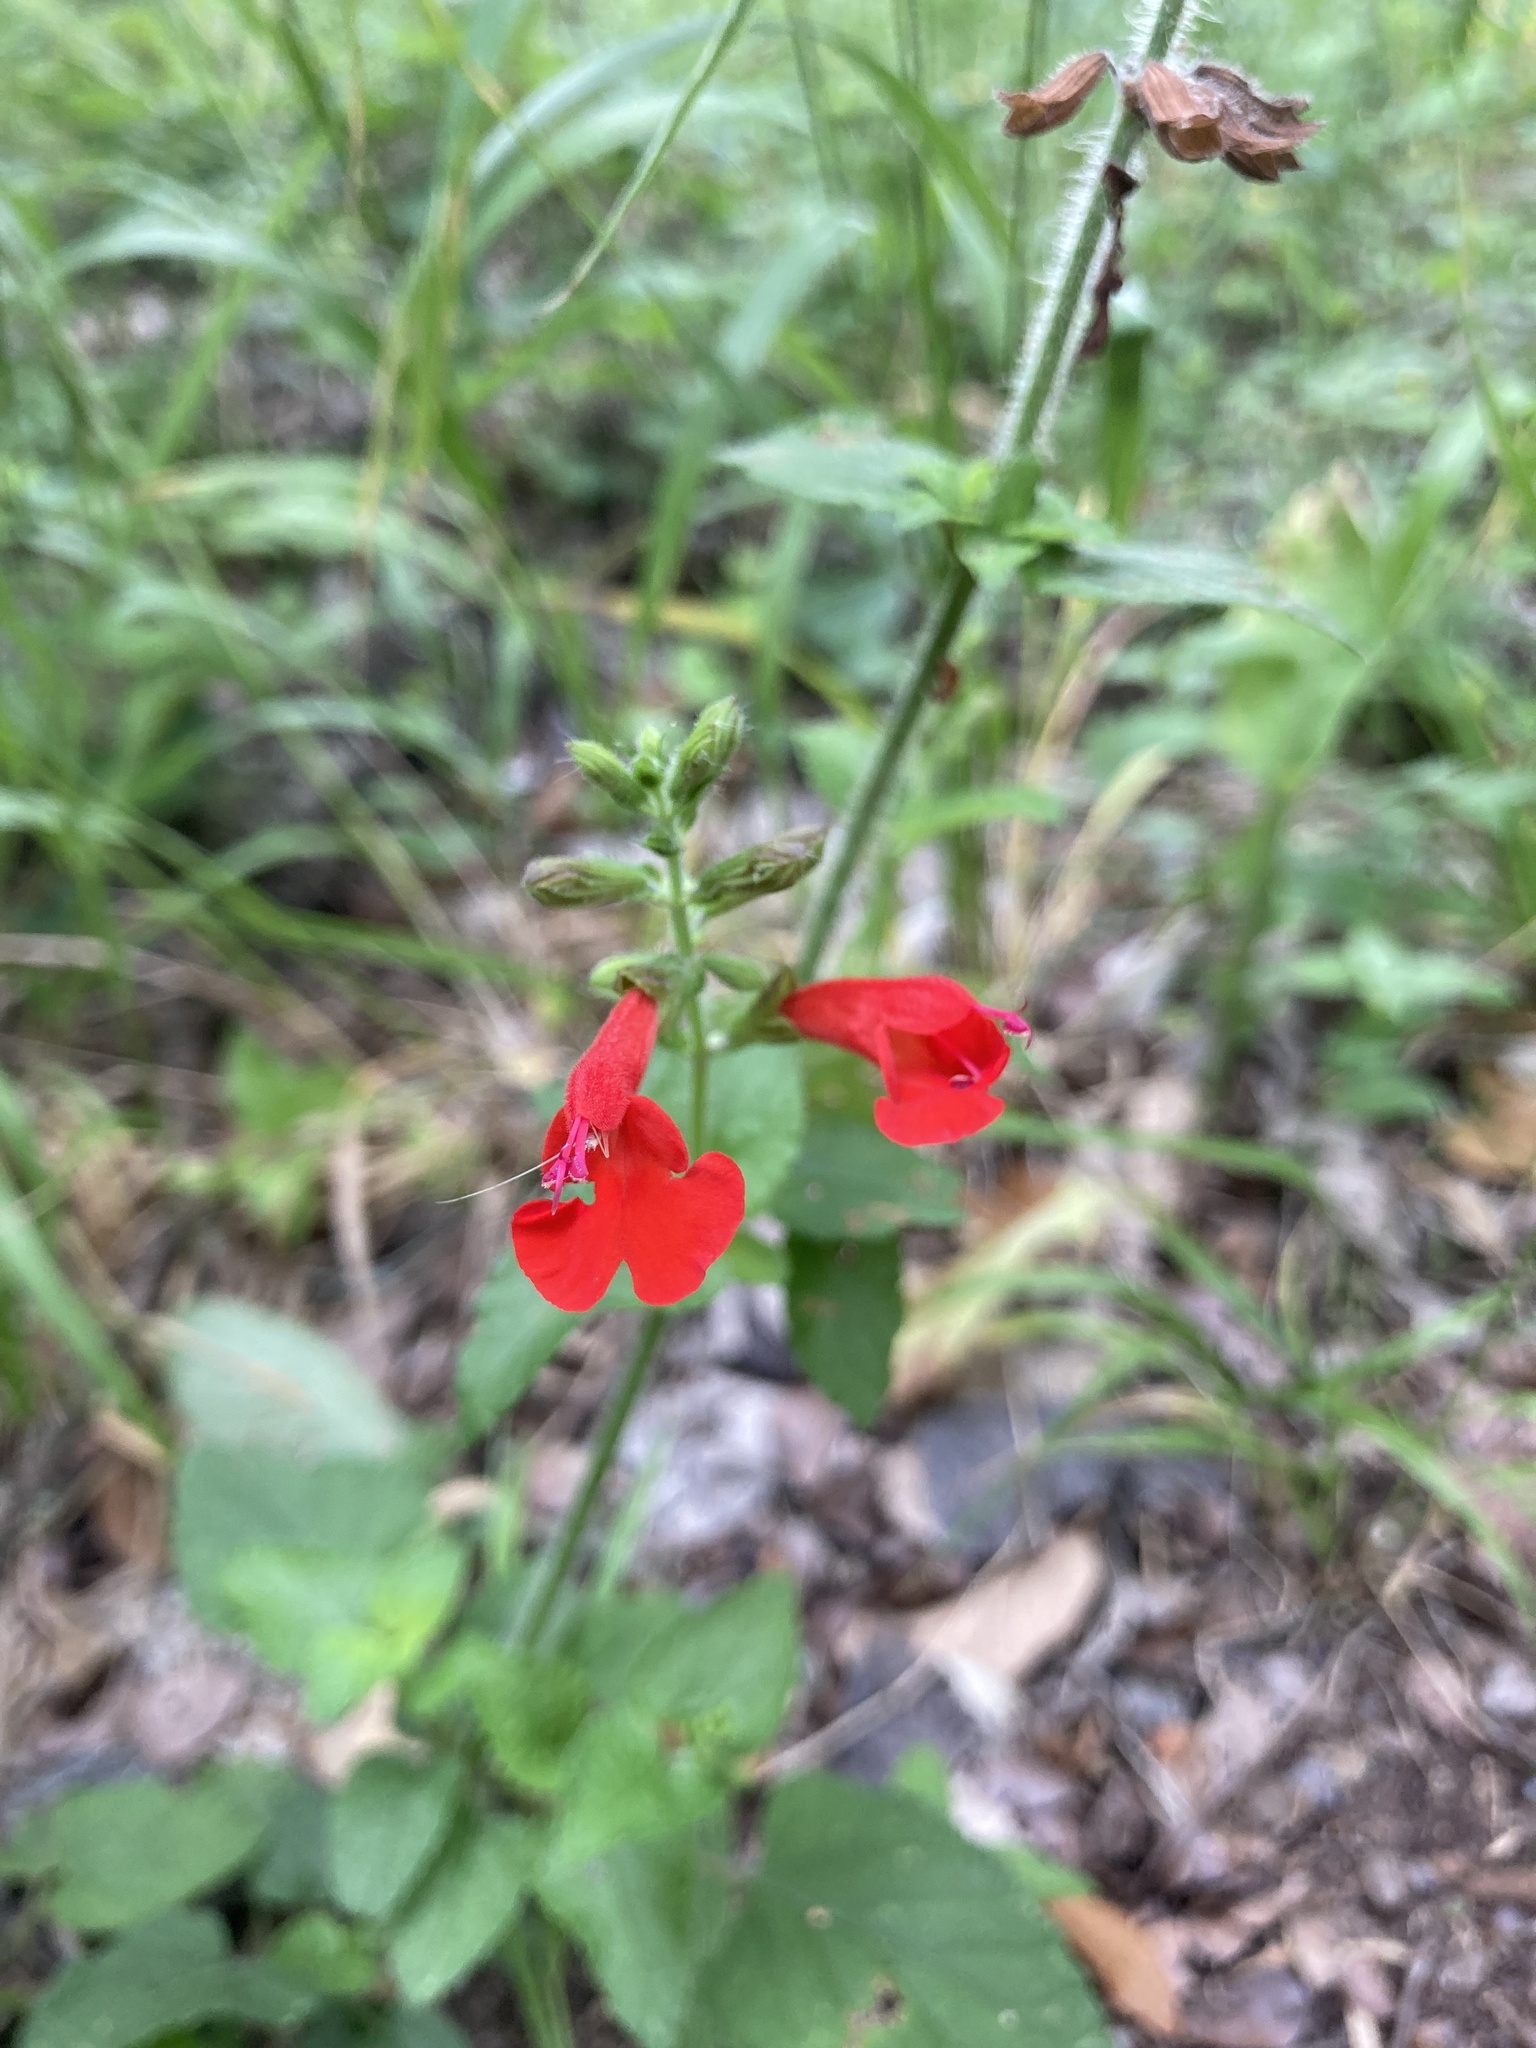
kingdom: Plantae
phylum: Tracheophyta
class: Magnoliopsida
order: Lamiales
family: Lamiaceae
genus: Salvia
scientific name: Salvia coccinea
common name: Blood sage
